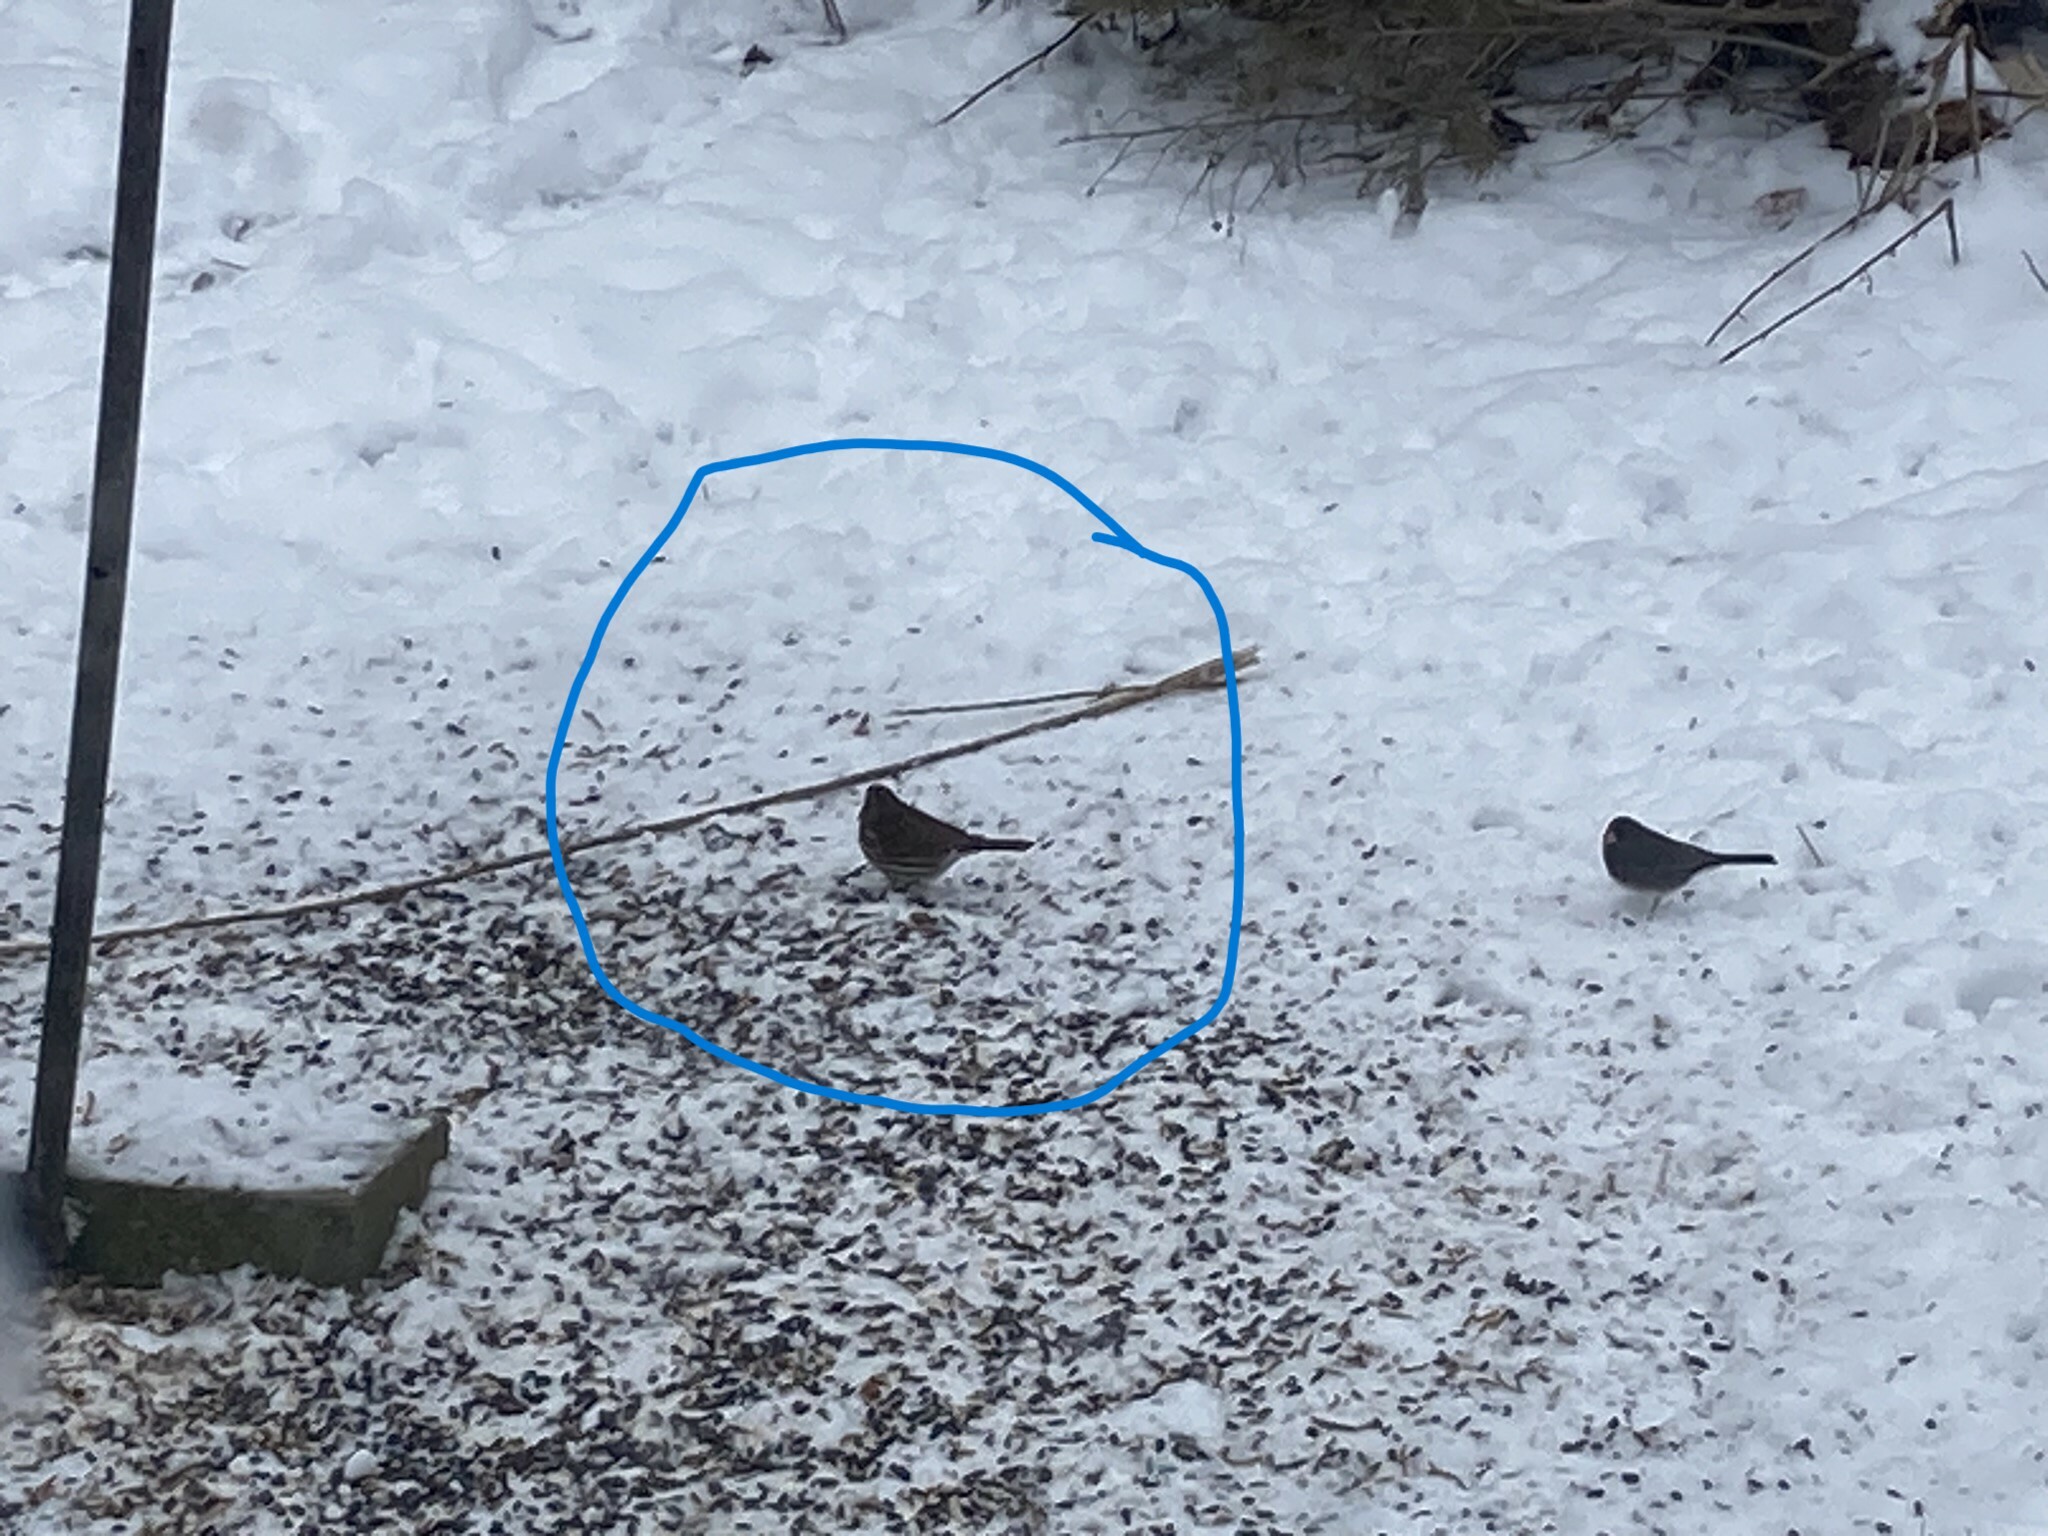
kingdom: Animalia
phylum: Chordata
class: Aves
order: Passeriformes
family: Passerellidae
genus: Passerella
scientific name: Passerella iliaca
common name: Fox sparrow
